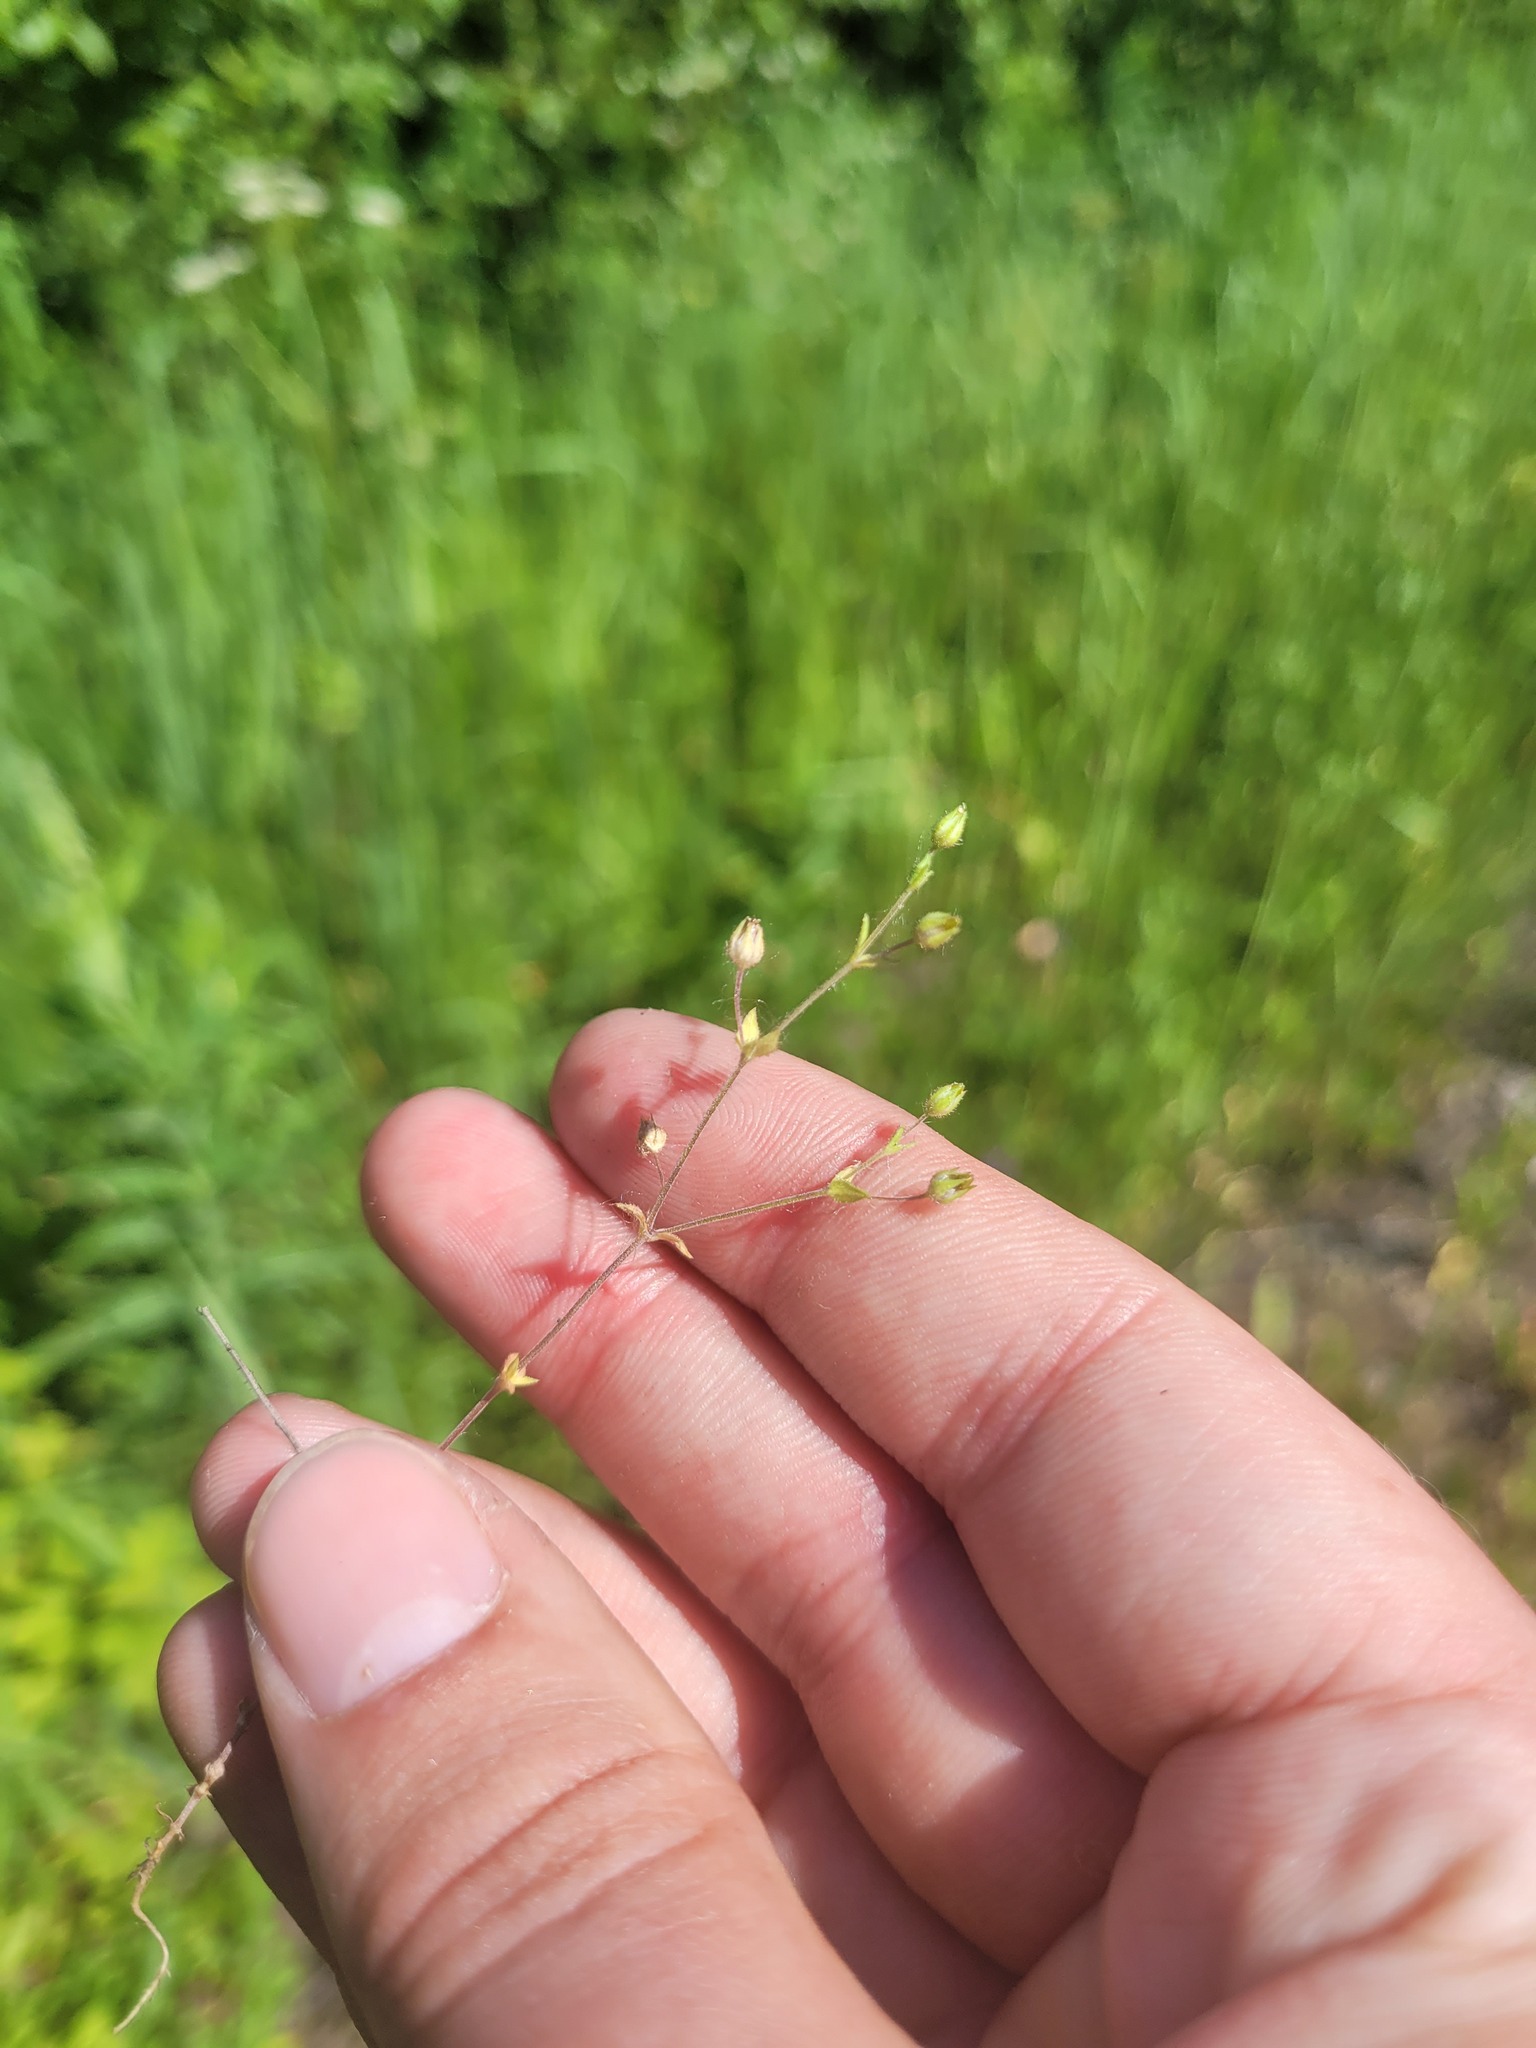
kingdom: Plantae
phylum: Tracheophyta
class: Magnoliopsida
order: Caryophyllales
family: Caryophyllaceae
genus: Arenaria
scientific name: Arenaria serpyllifolia
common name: Thyme-leaved sandwort
